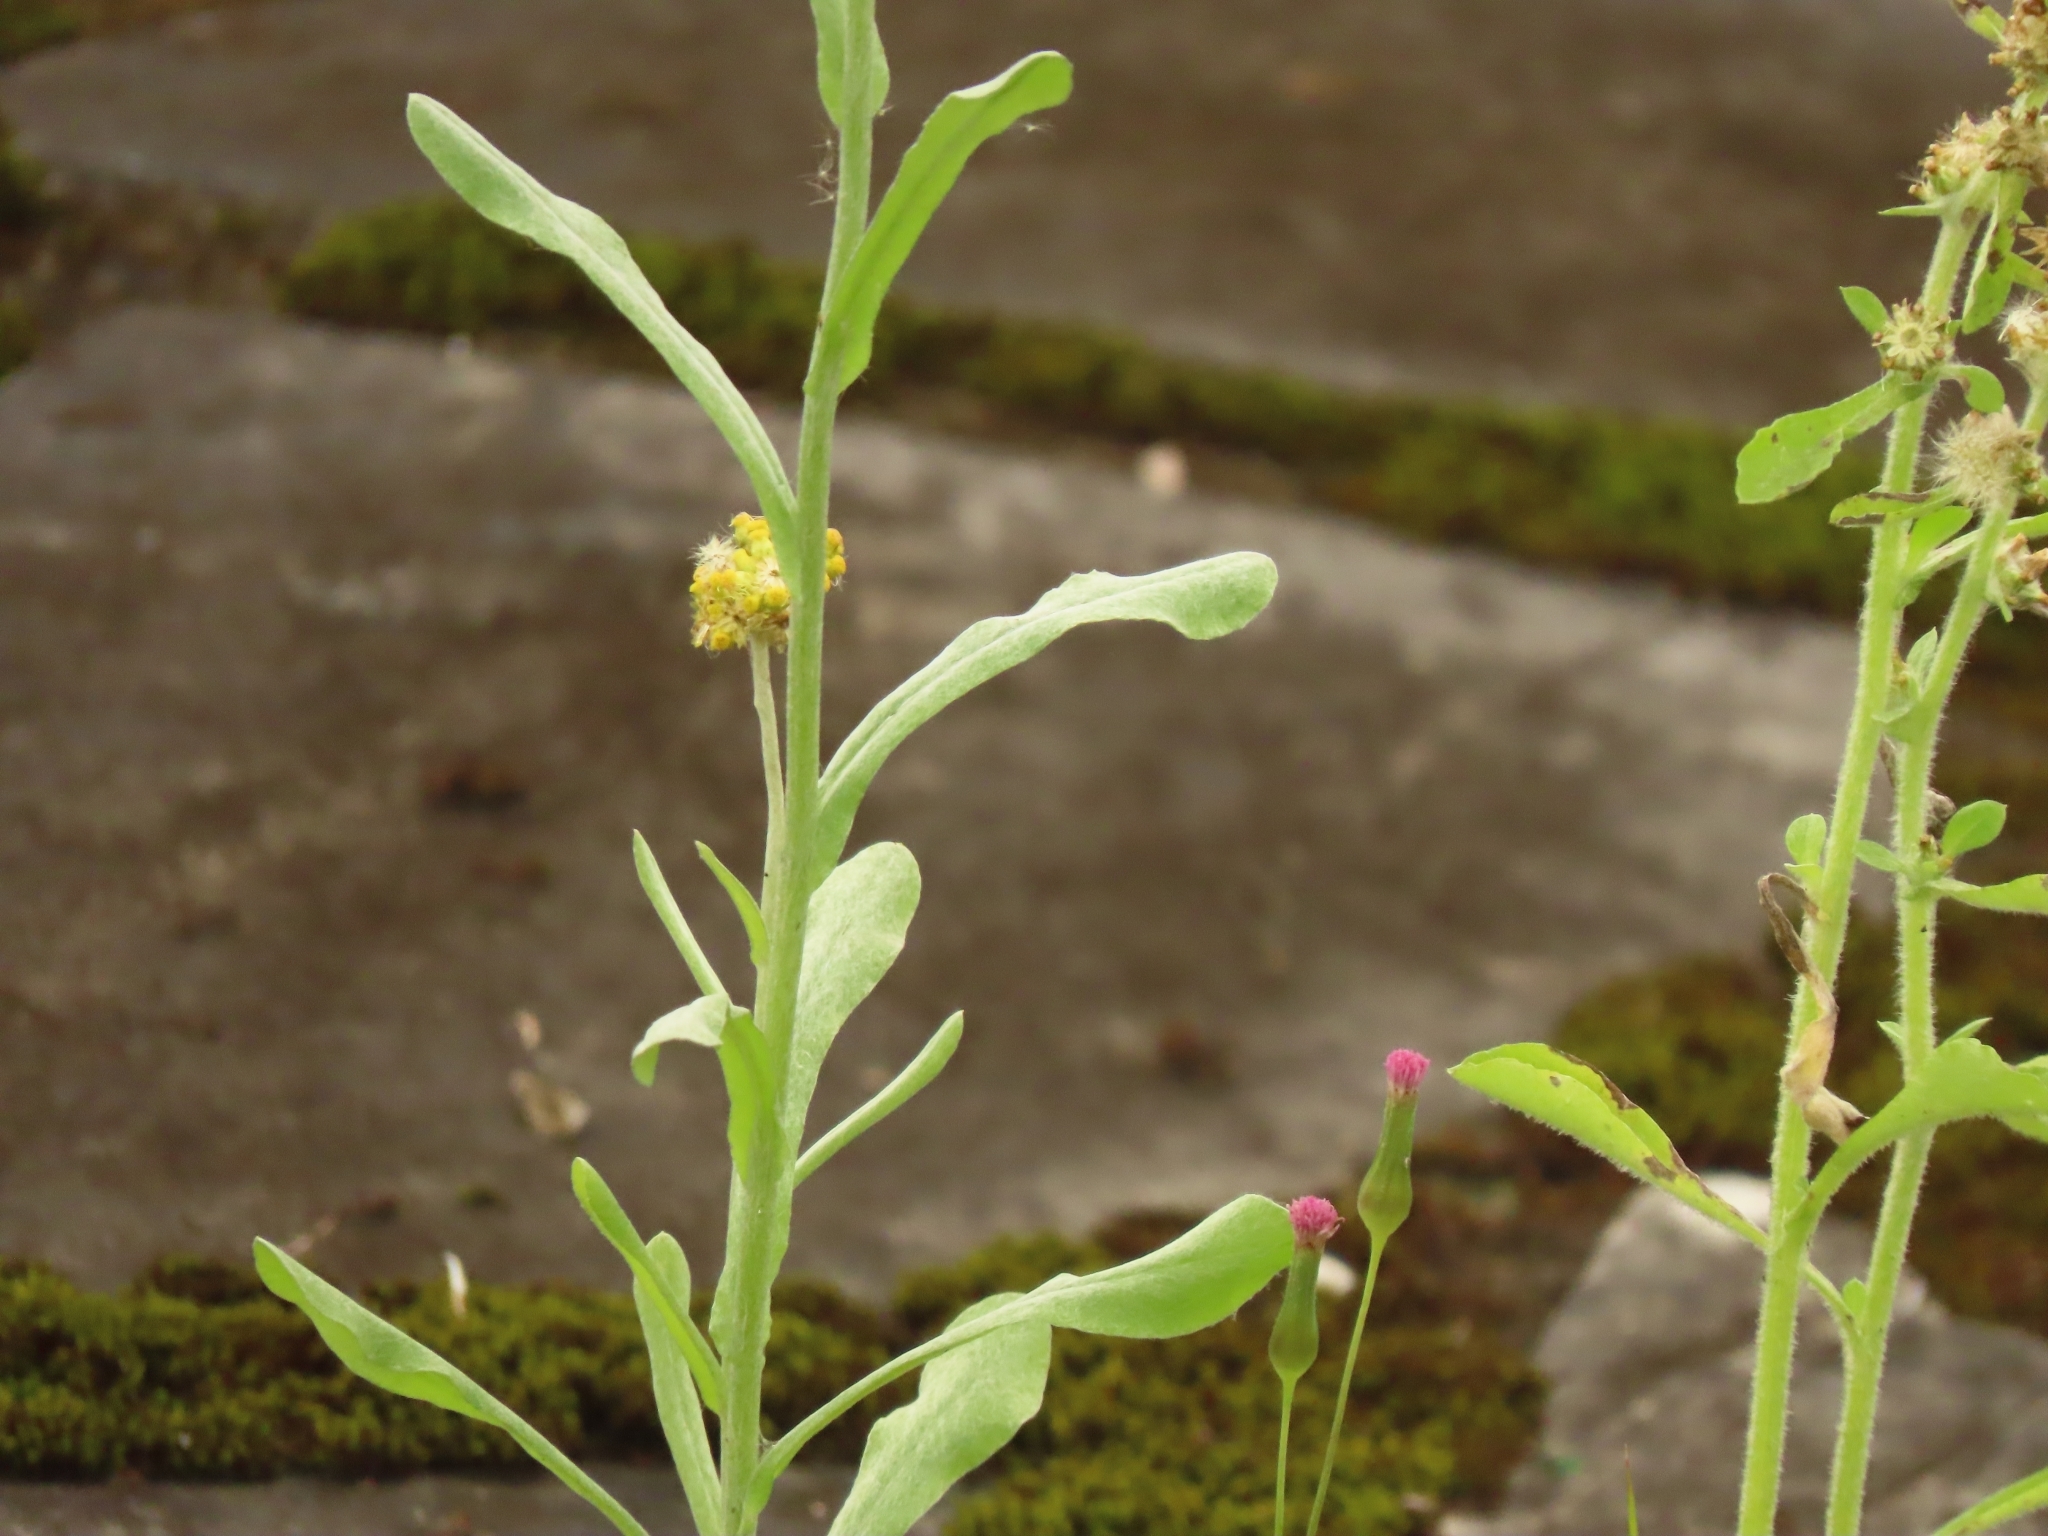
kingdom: Plantae
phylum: Tracheophyta
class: Magnoliopsida
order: Asterales
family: Asteraceae
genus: Pseudognaphalium
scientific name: Pseudognaphalium affine
